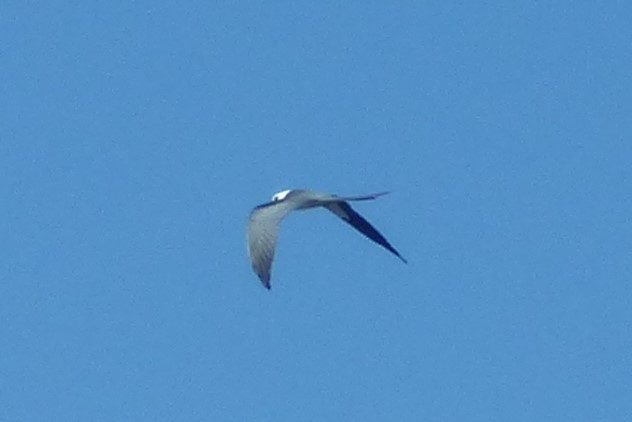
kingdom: Animalia
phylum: Chordata
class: Aves
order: Accipitriformes
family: Accipitridae
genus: Elanoides
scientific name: Elanoides forficatus
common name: Swallow-tailed kite
